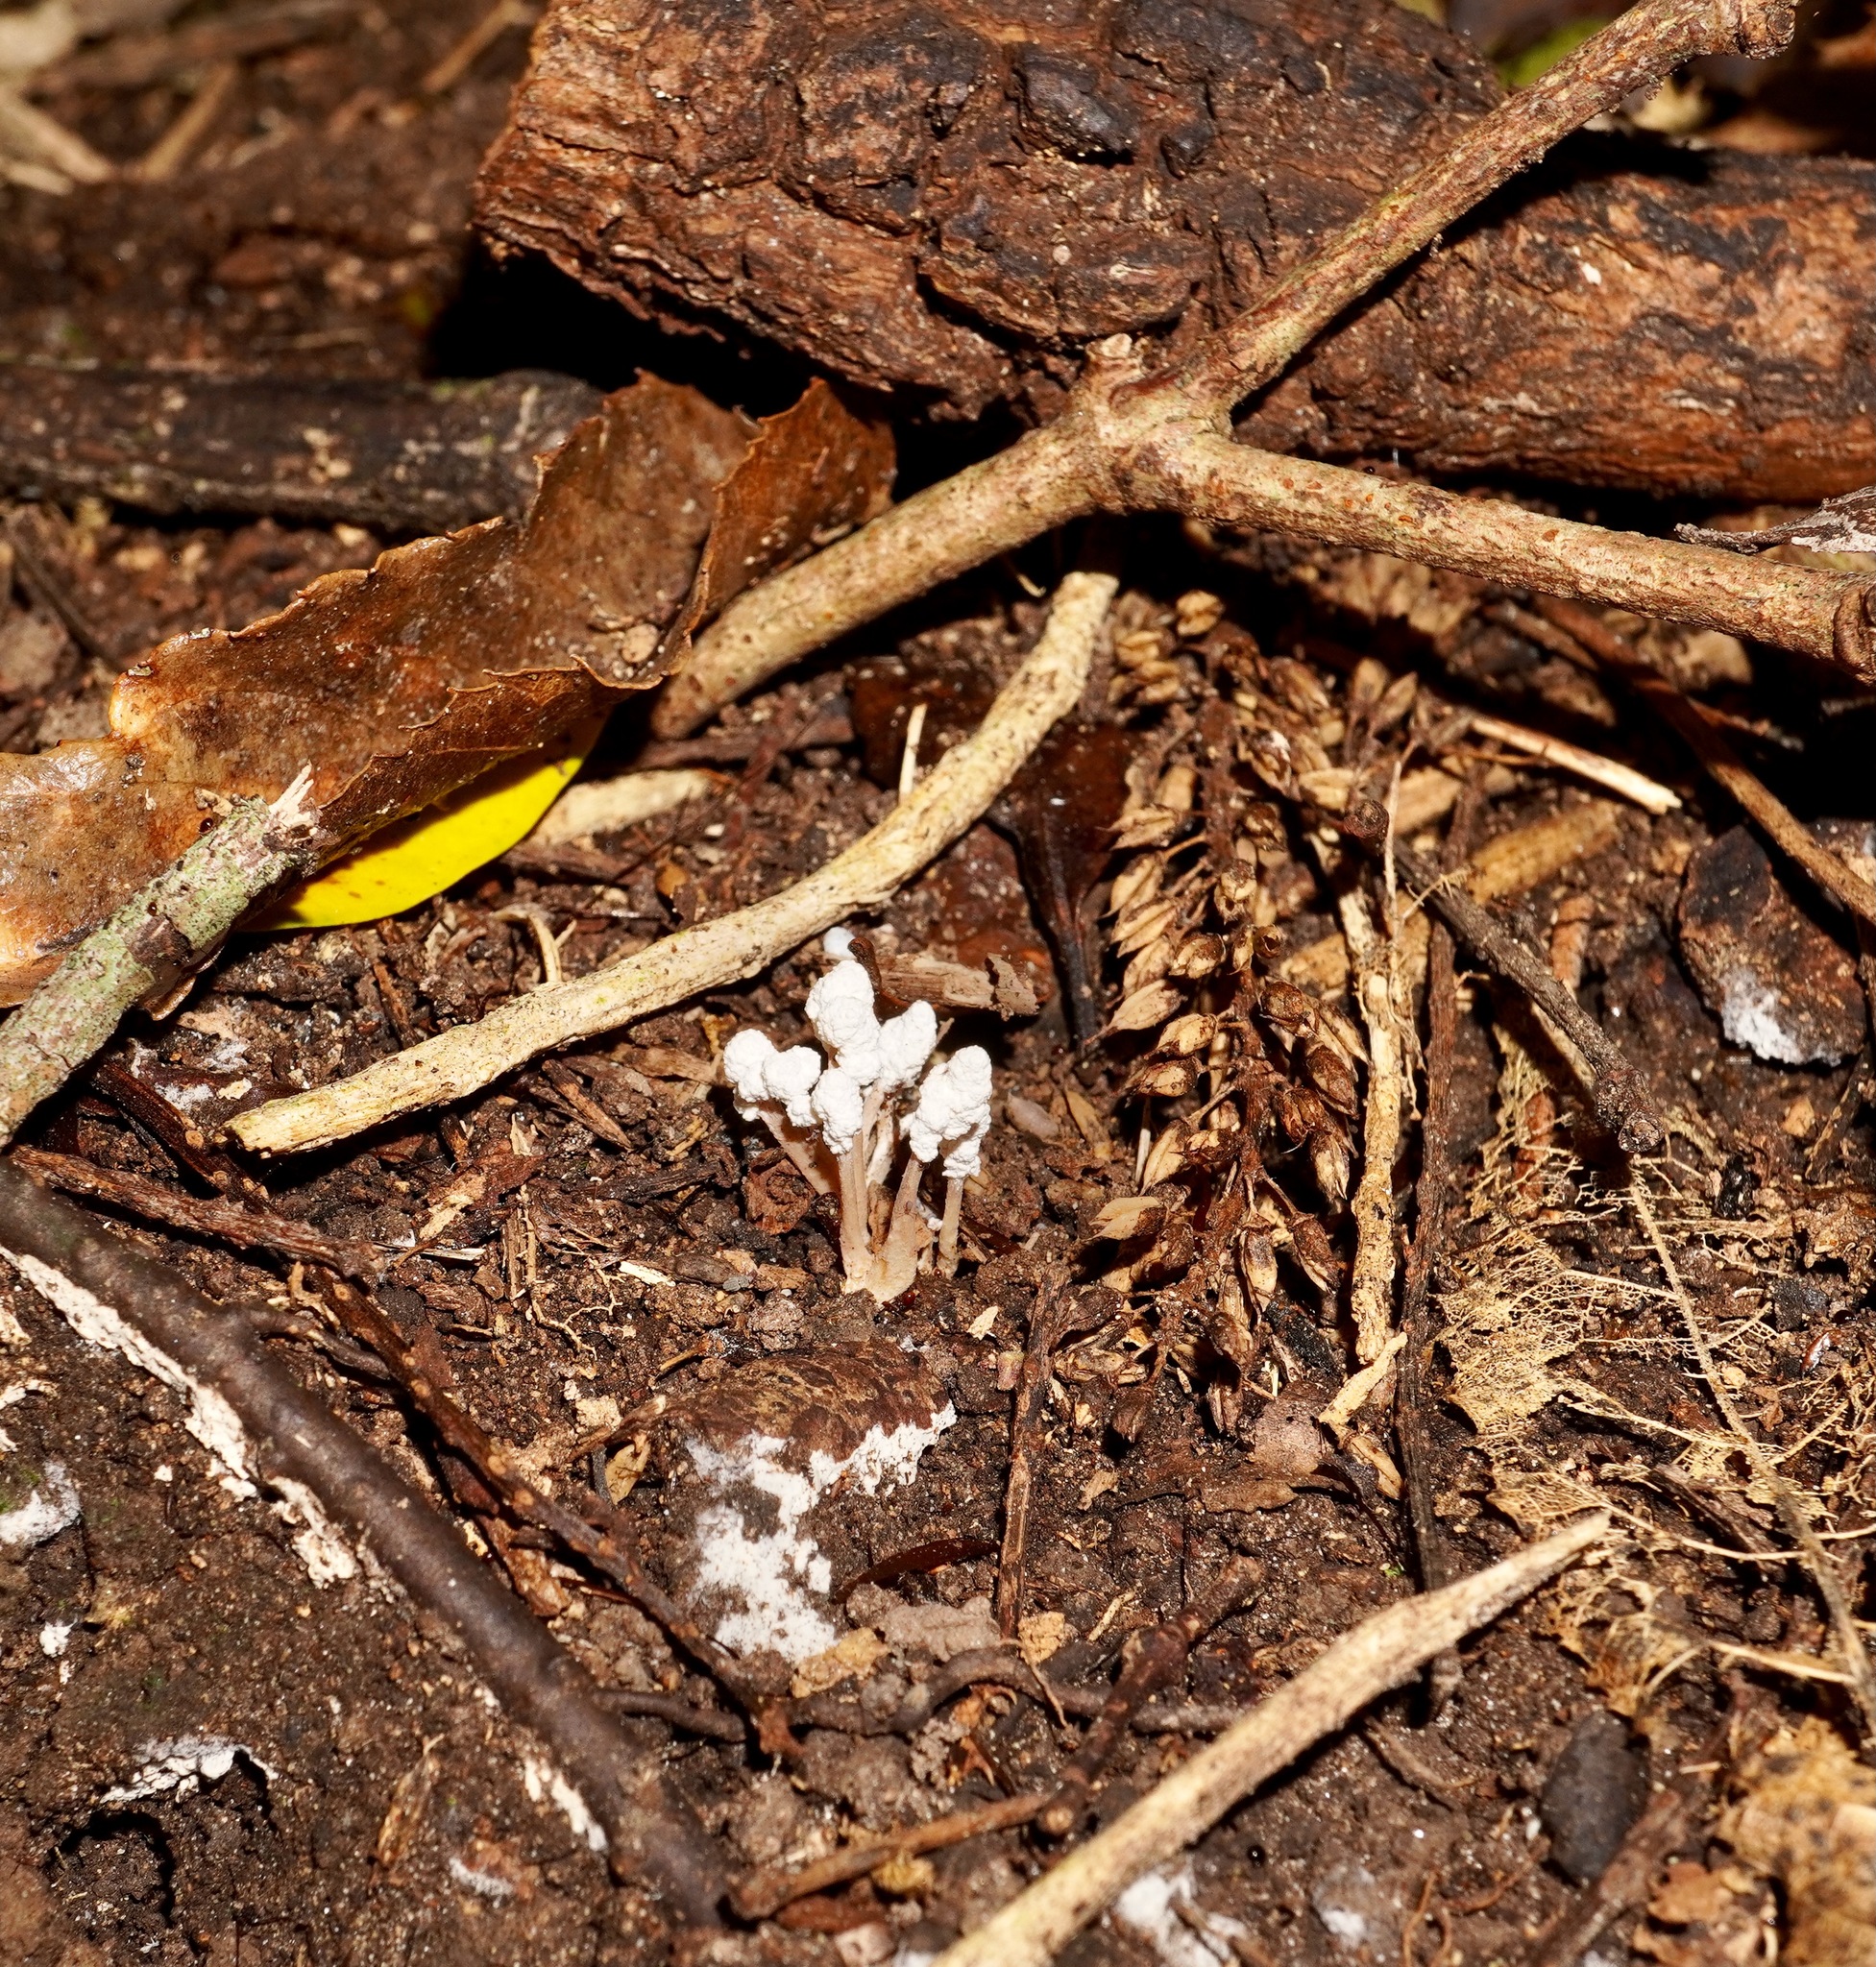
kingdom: Fungi
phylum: Ascomycota
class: Sordariomycetes
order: Hypocreales
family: Cordycipitaceae
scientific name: Cordycipitaceae
